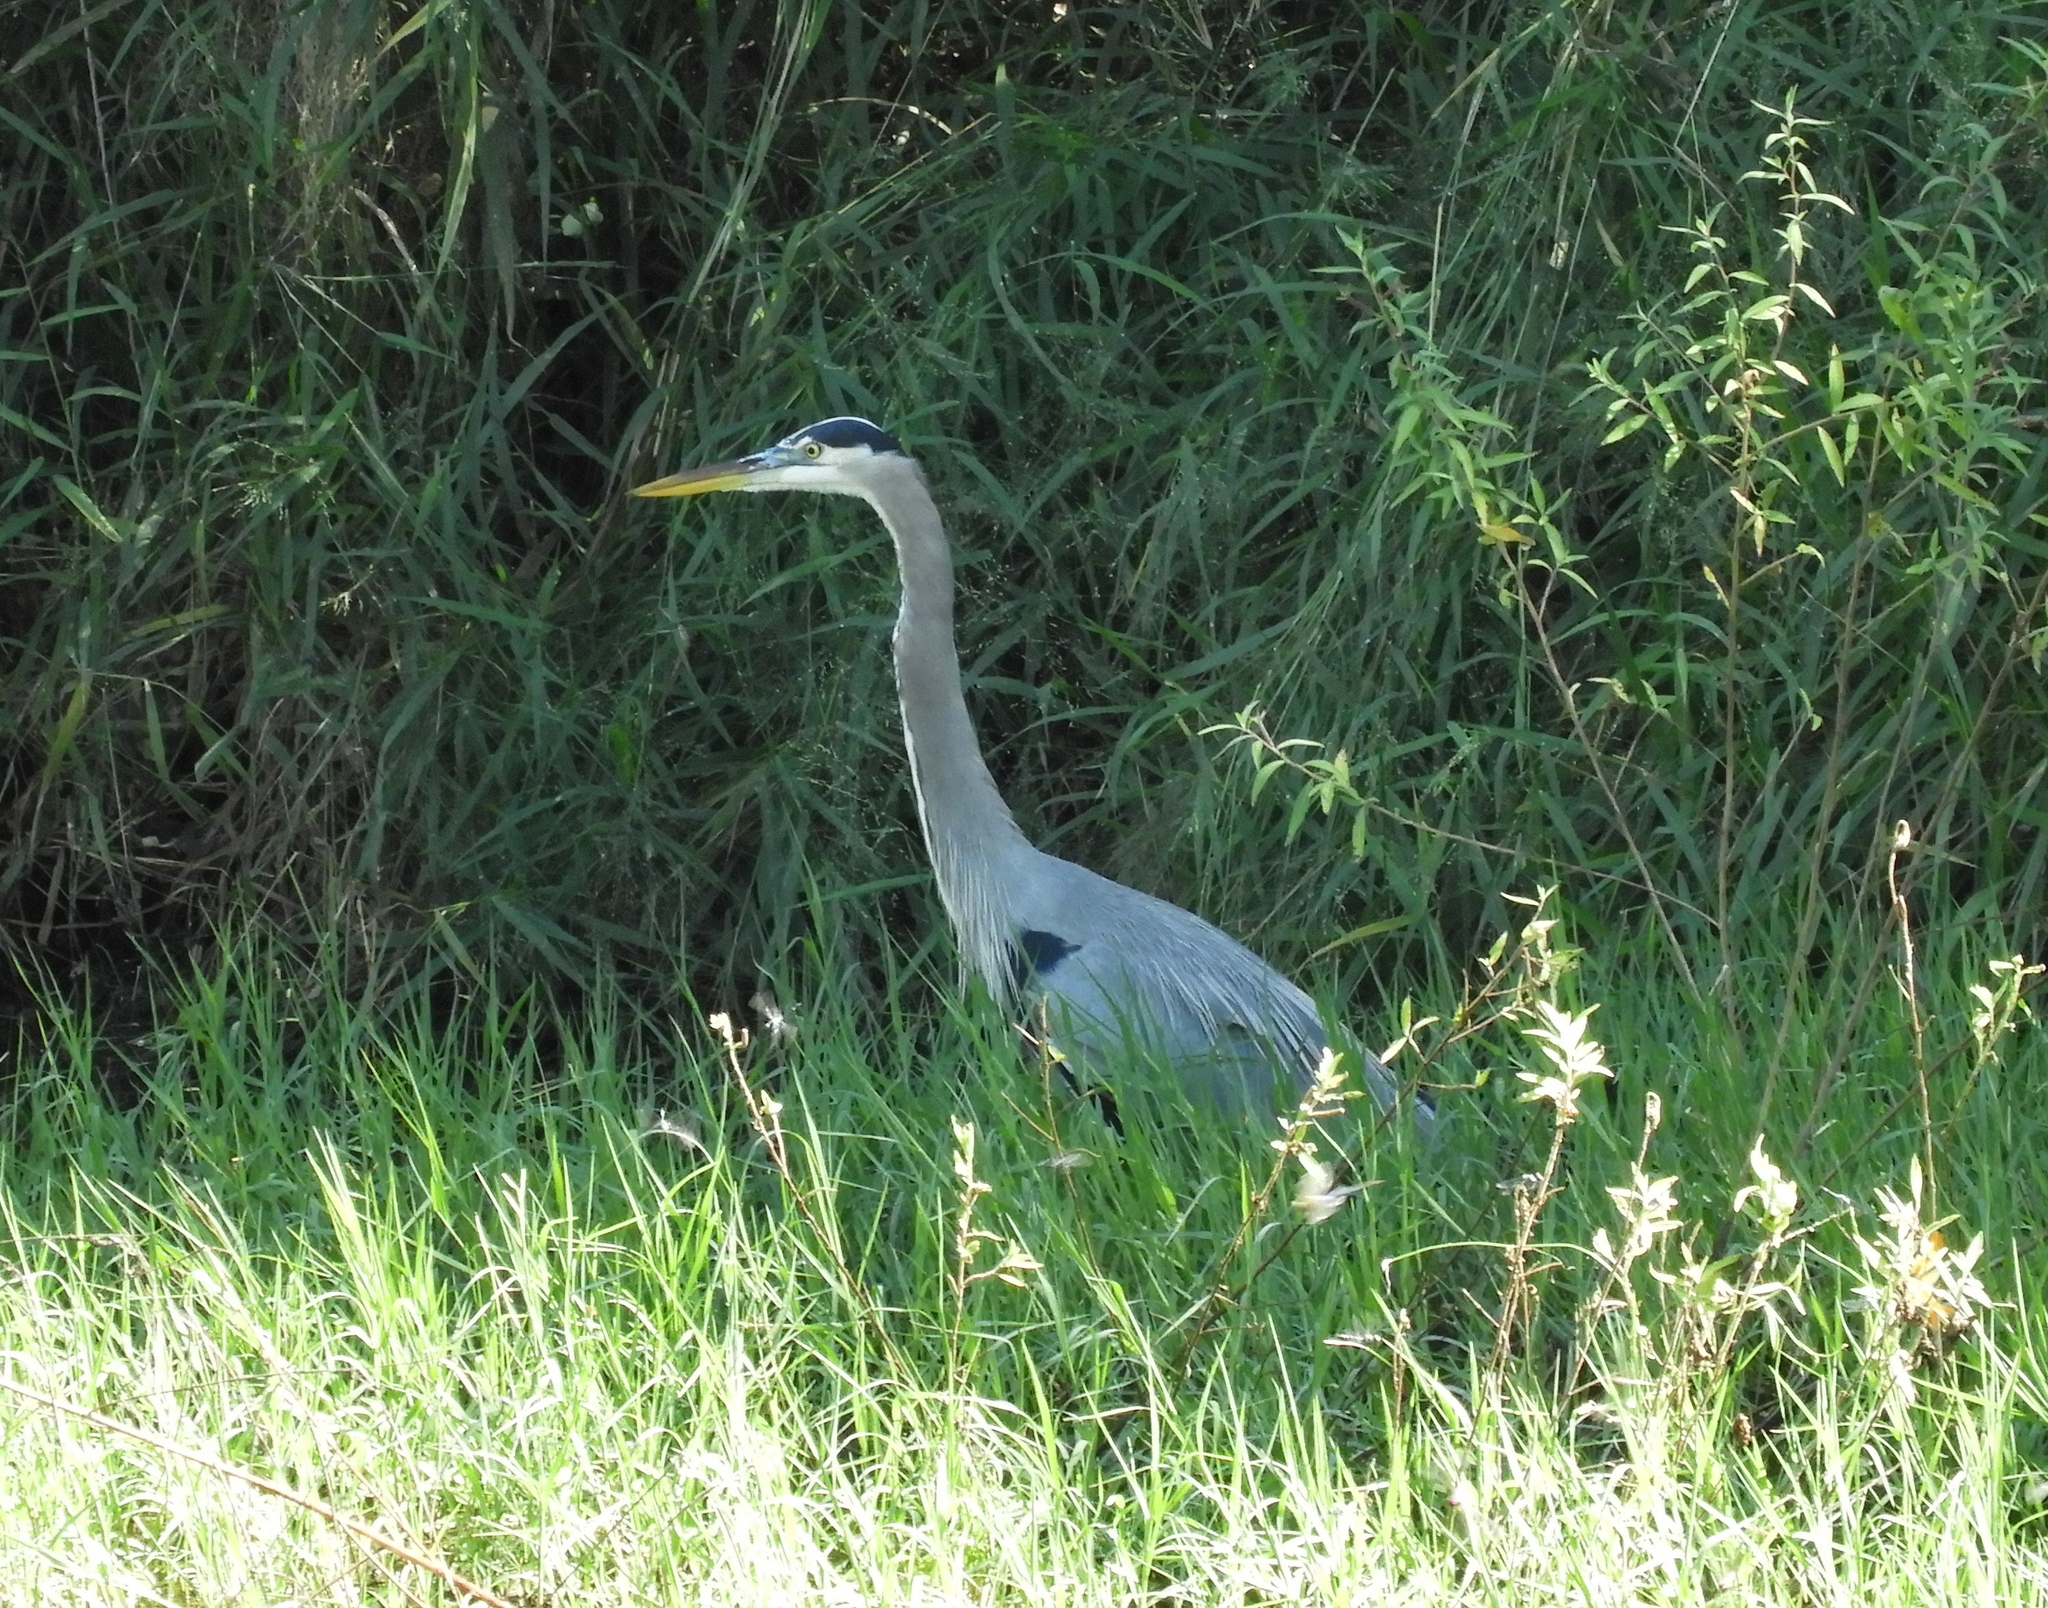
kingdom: Animalia
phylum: Chordata
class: Aves
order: Pelecaniformes
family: Ardeidae
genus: Ardea
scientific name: Ardea herodias
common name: Great blue heron
